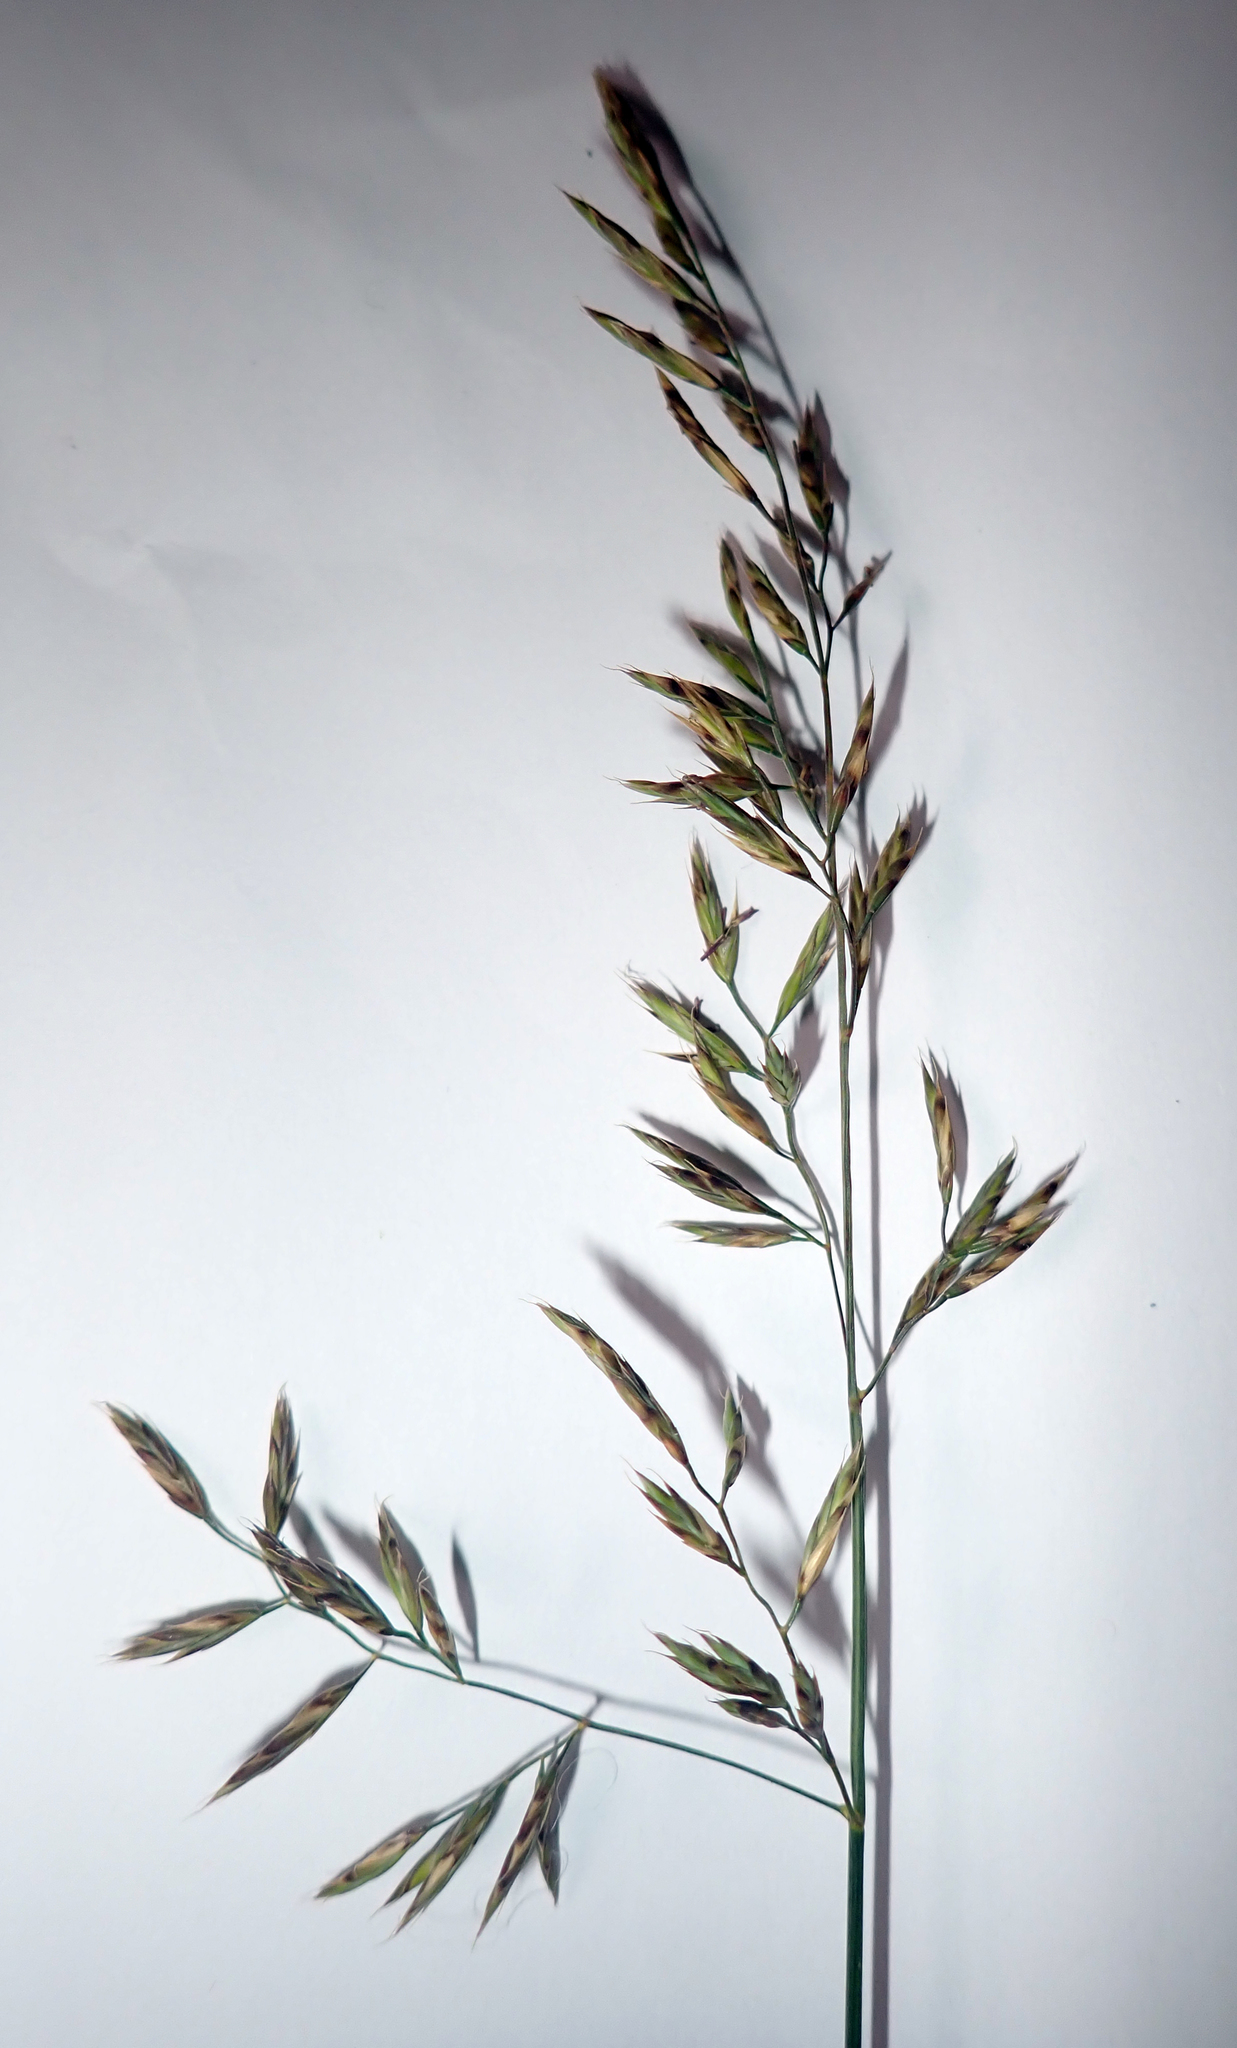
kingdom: Plantae
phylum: Tracheophyta
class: Liliopsida
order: Poales
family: Poaceae
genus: Festuca
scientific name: Festuca
